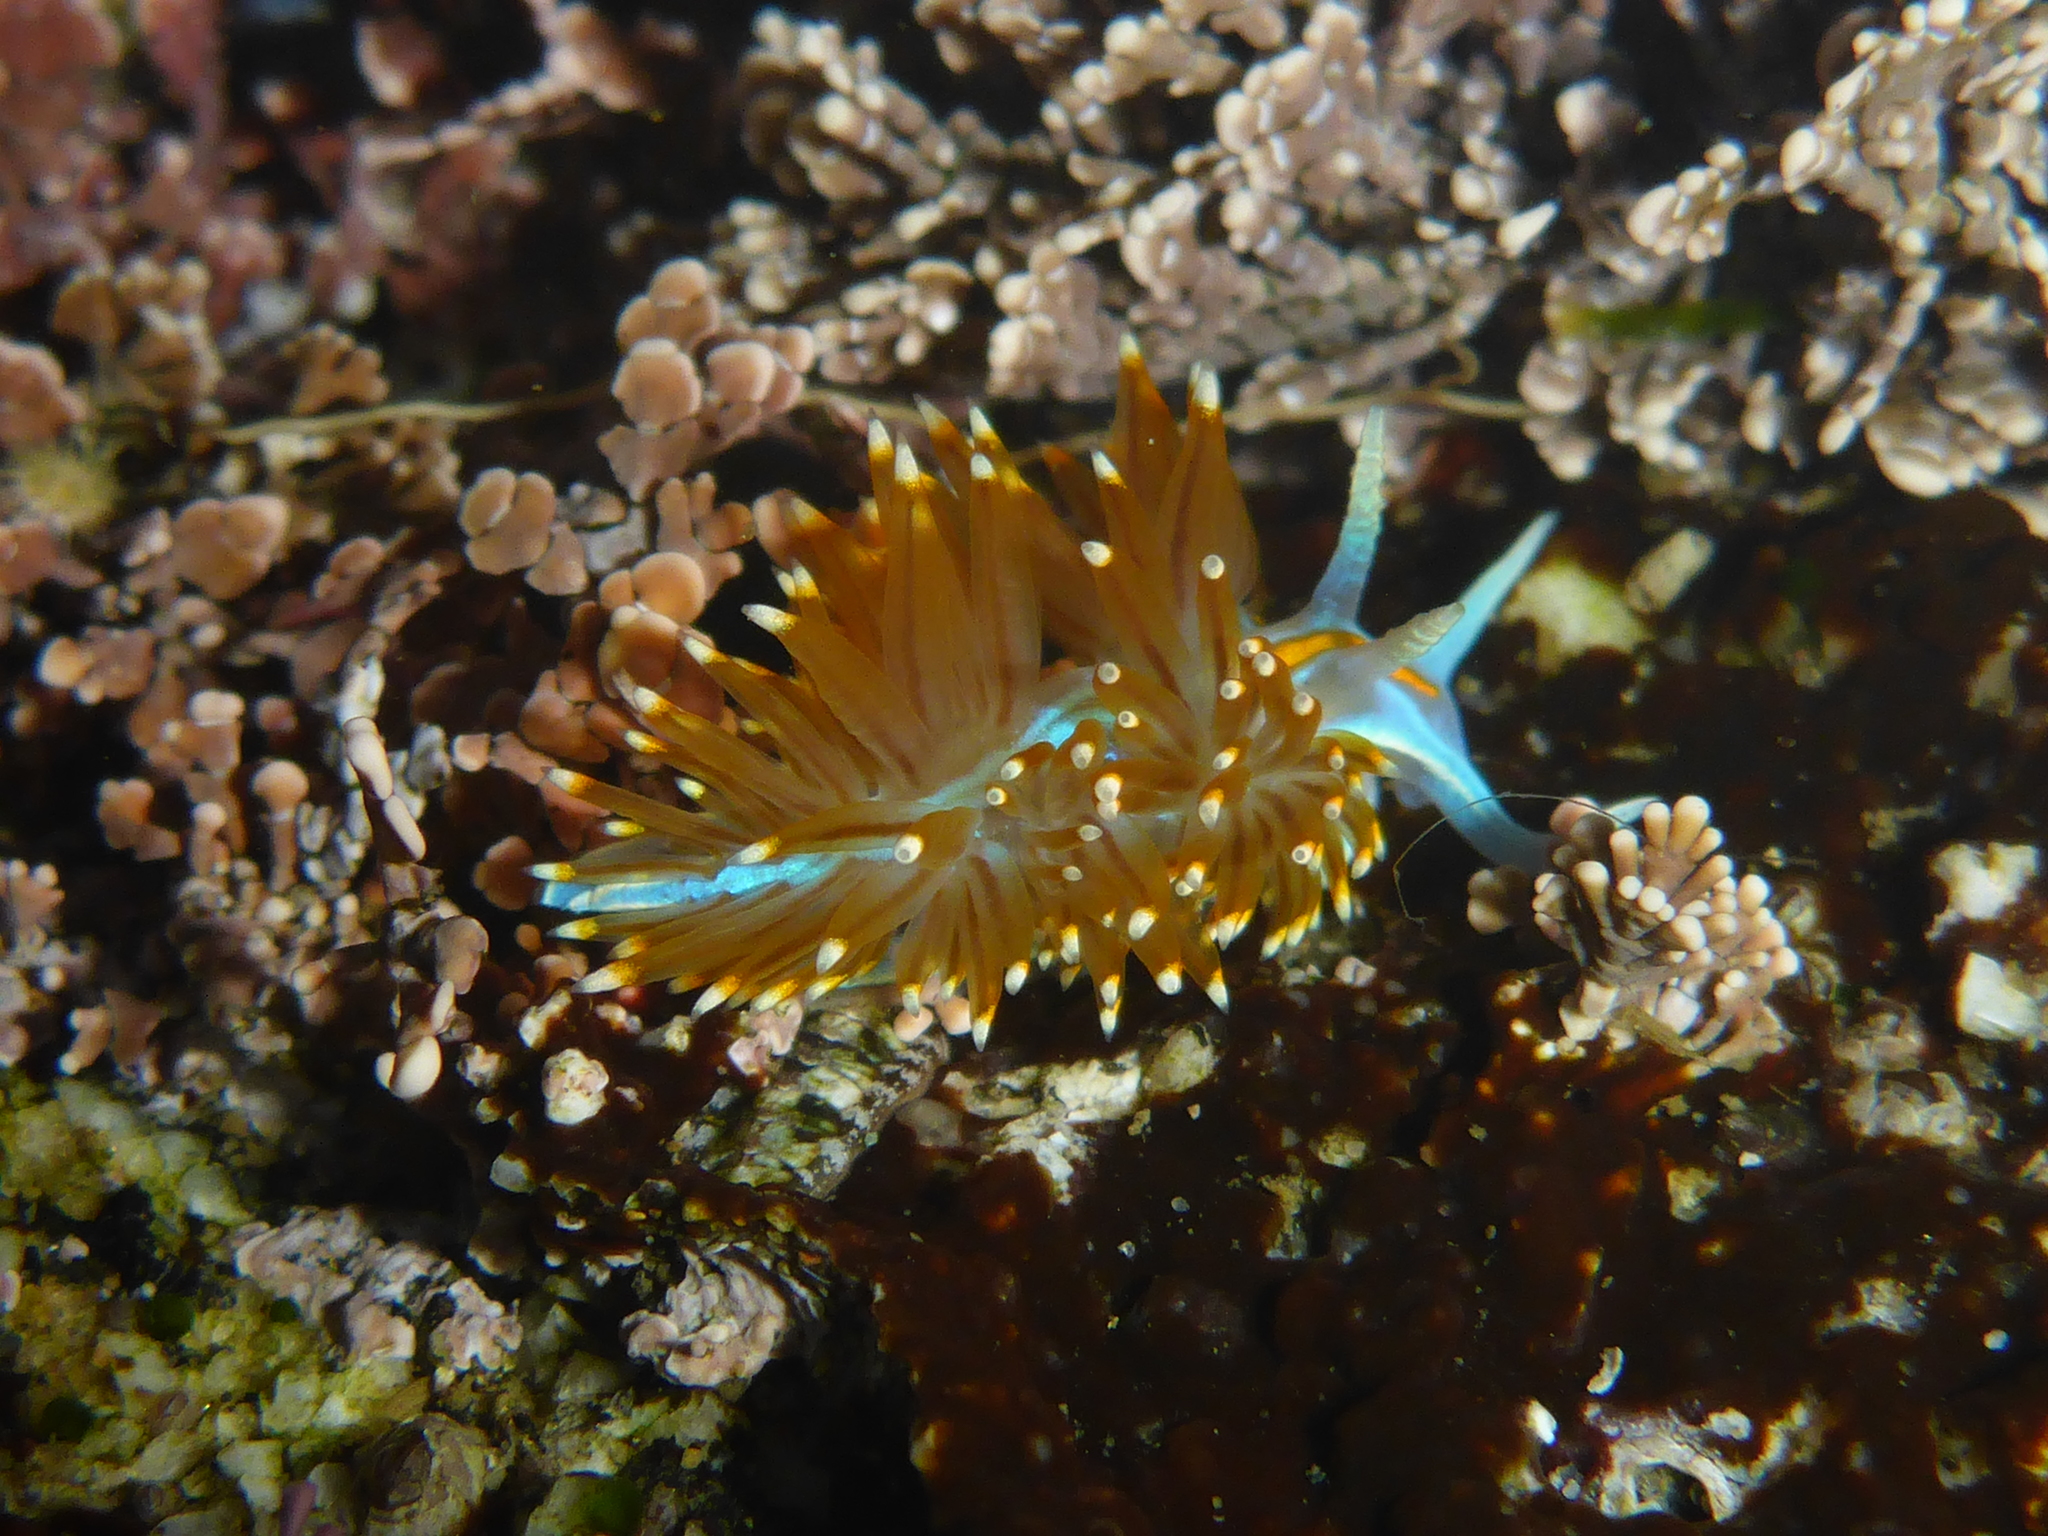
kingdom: Animalia
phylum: Mollusca
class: Gastropoda
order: Nudibranchia
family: Myrrhinidae
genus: Hermissenda
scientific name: Hermissenda opalescens
